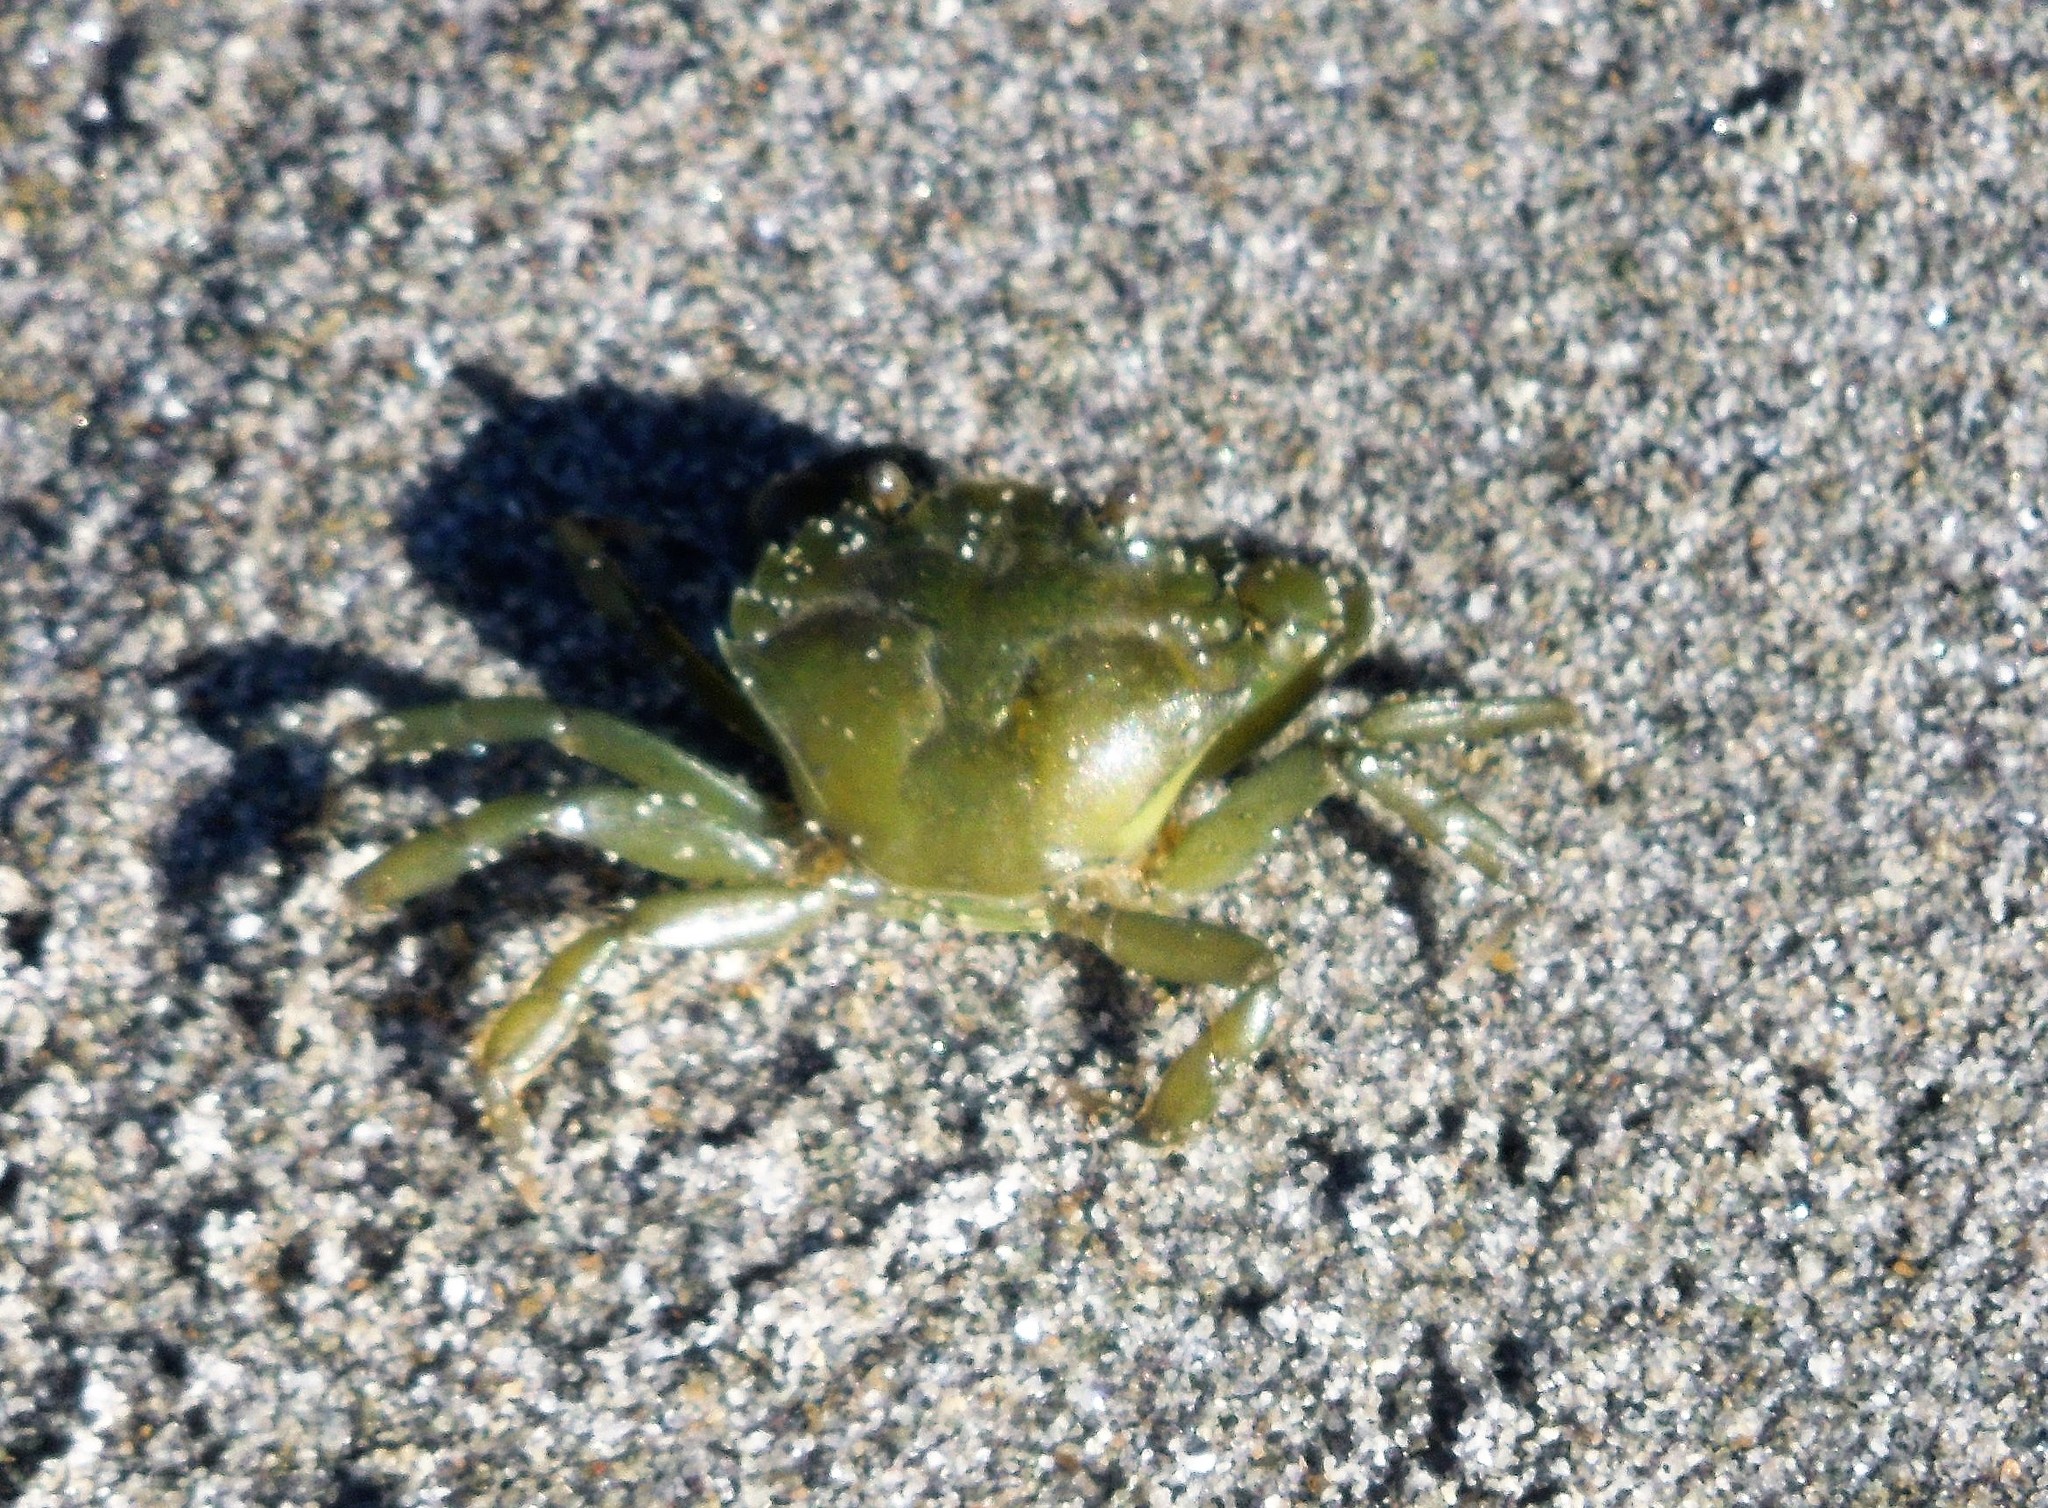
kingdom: Animalia
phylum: Arthropoda
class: Malacostraca
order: Decapoda
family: Carcinidae
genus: Carcinus
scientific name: Carcinus maenas
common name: European green crab
